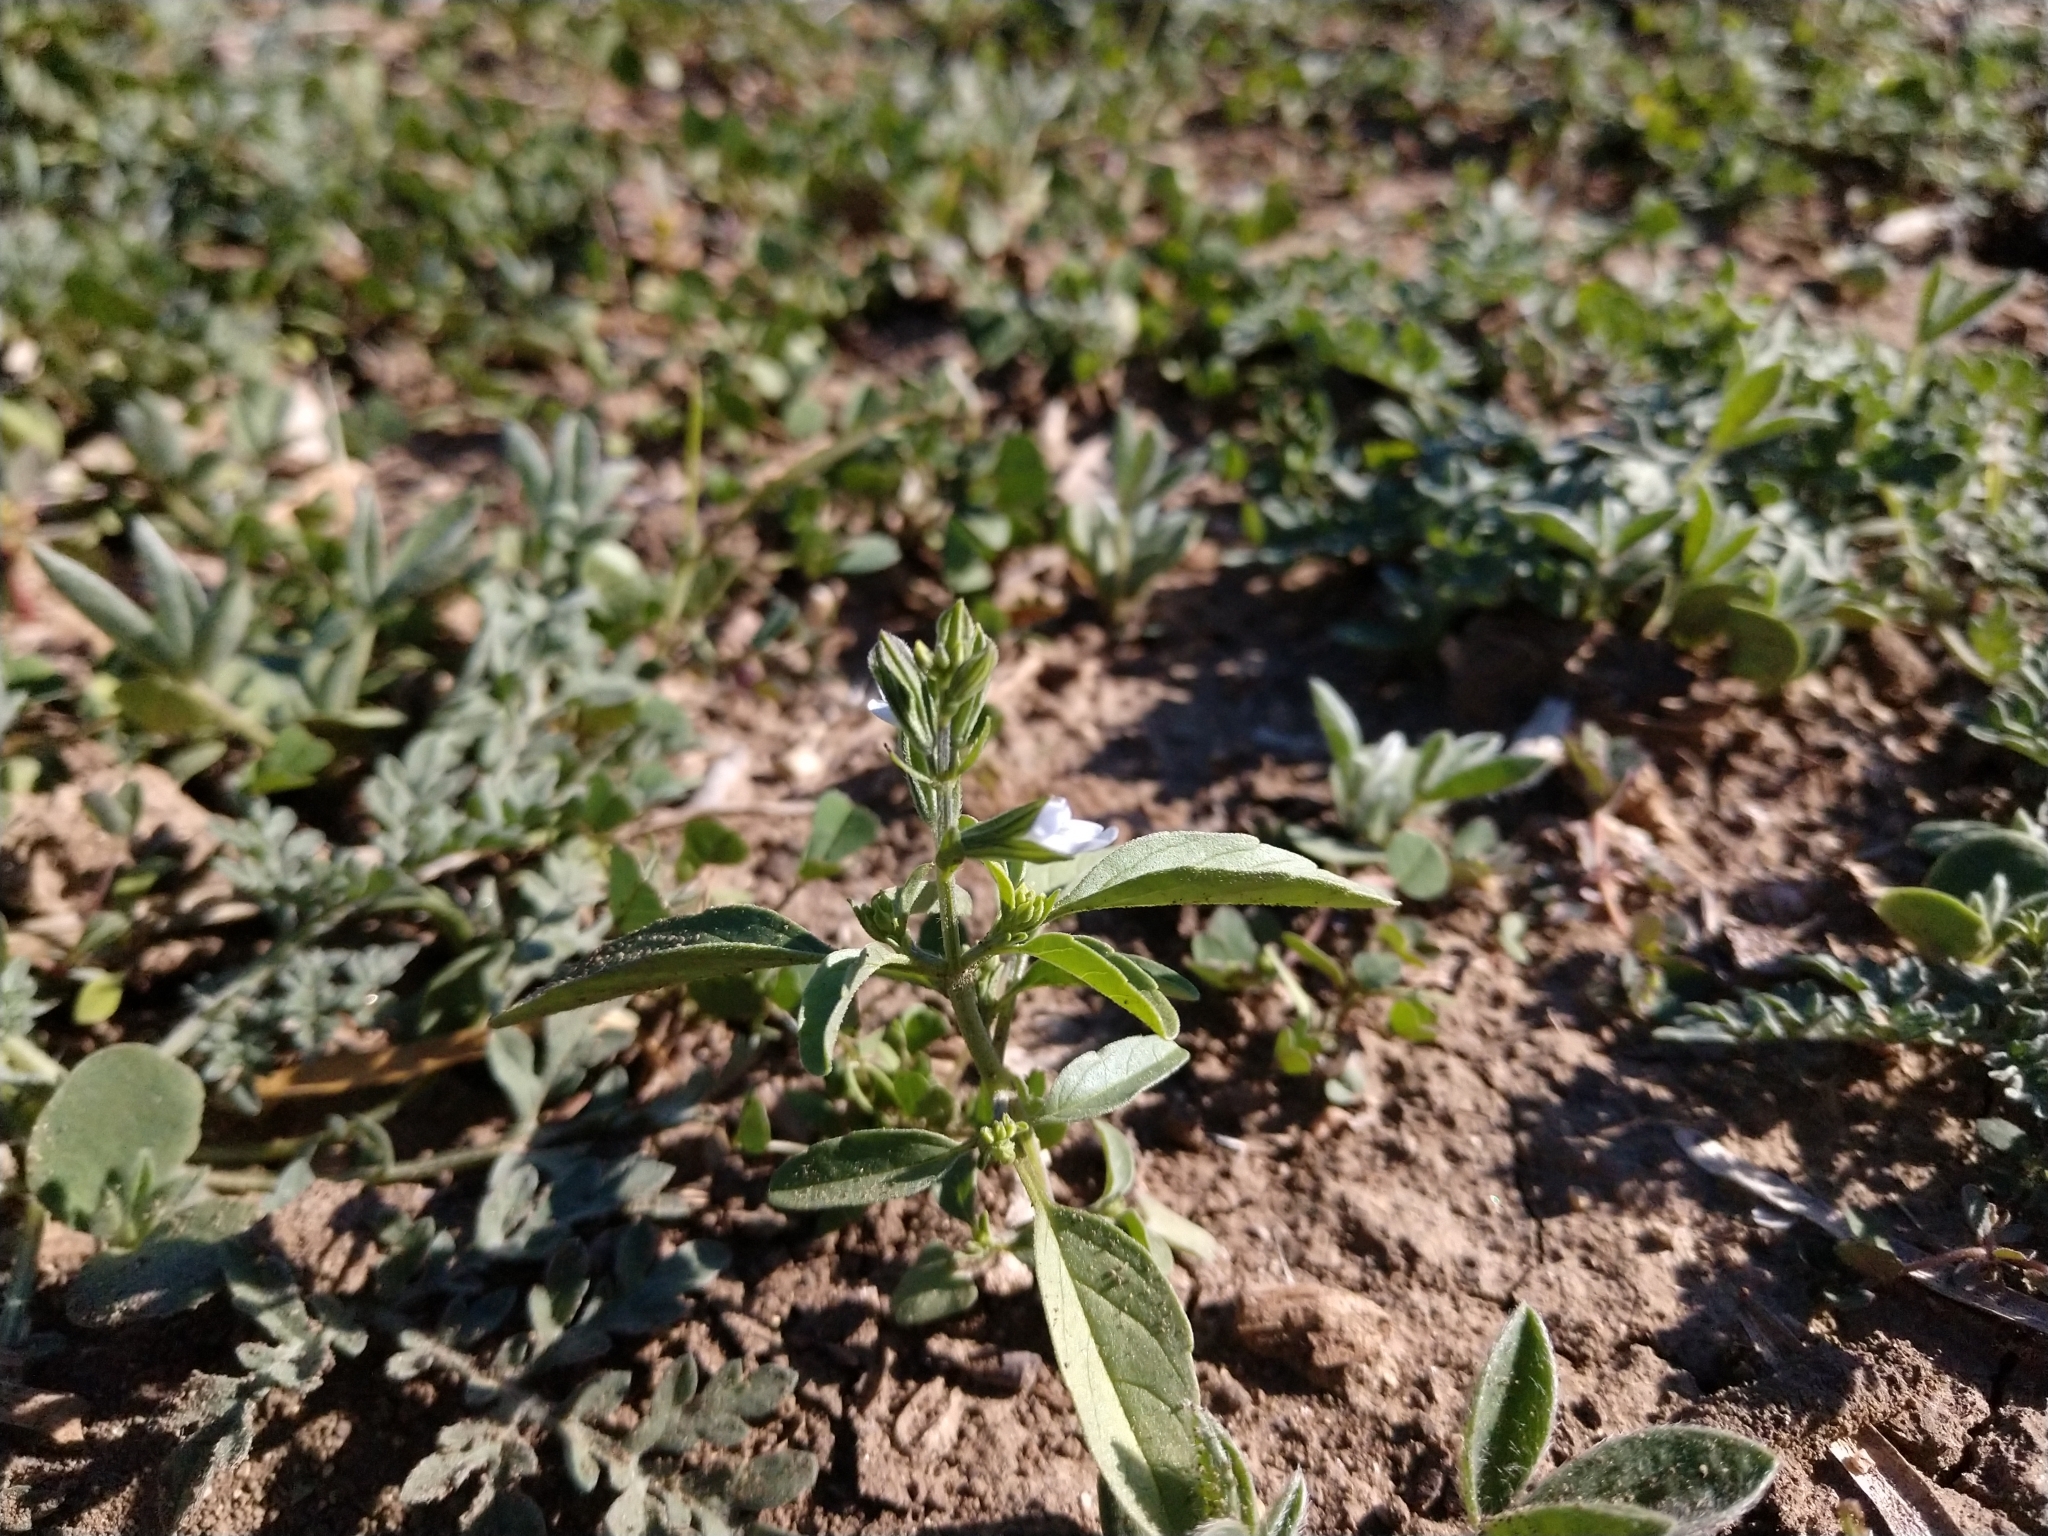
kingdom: Plantae
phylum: Tracheophyta
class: Magnoliopsida
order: Lamiales
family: Lamiaceae
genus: Salvia
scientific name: Salvia reflexa
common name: Mintweed
